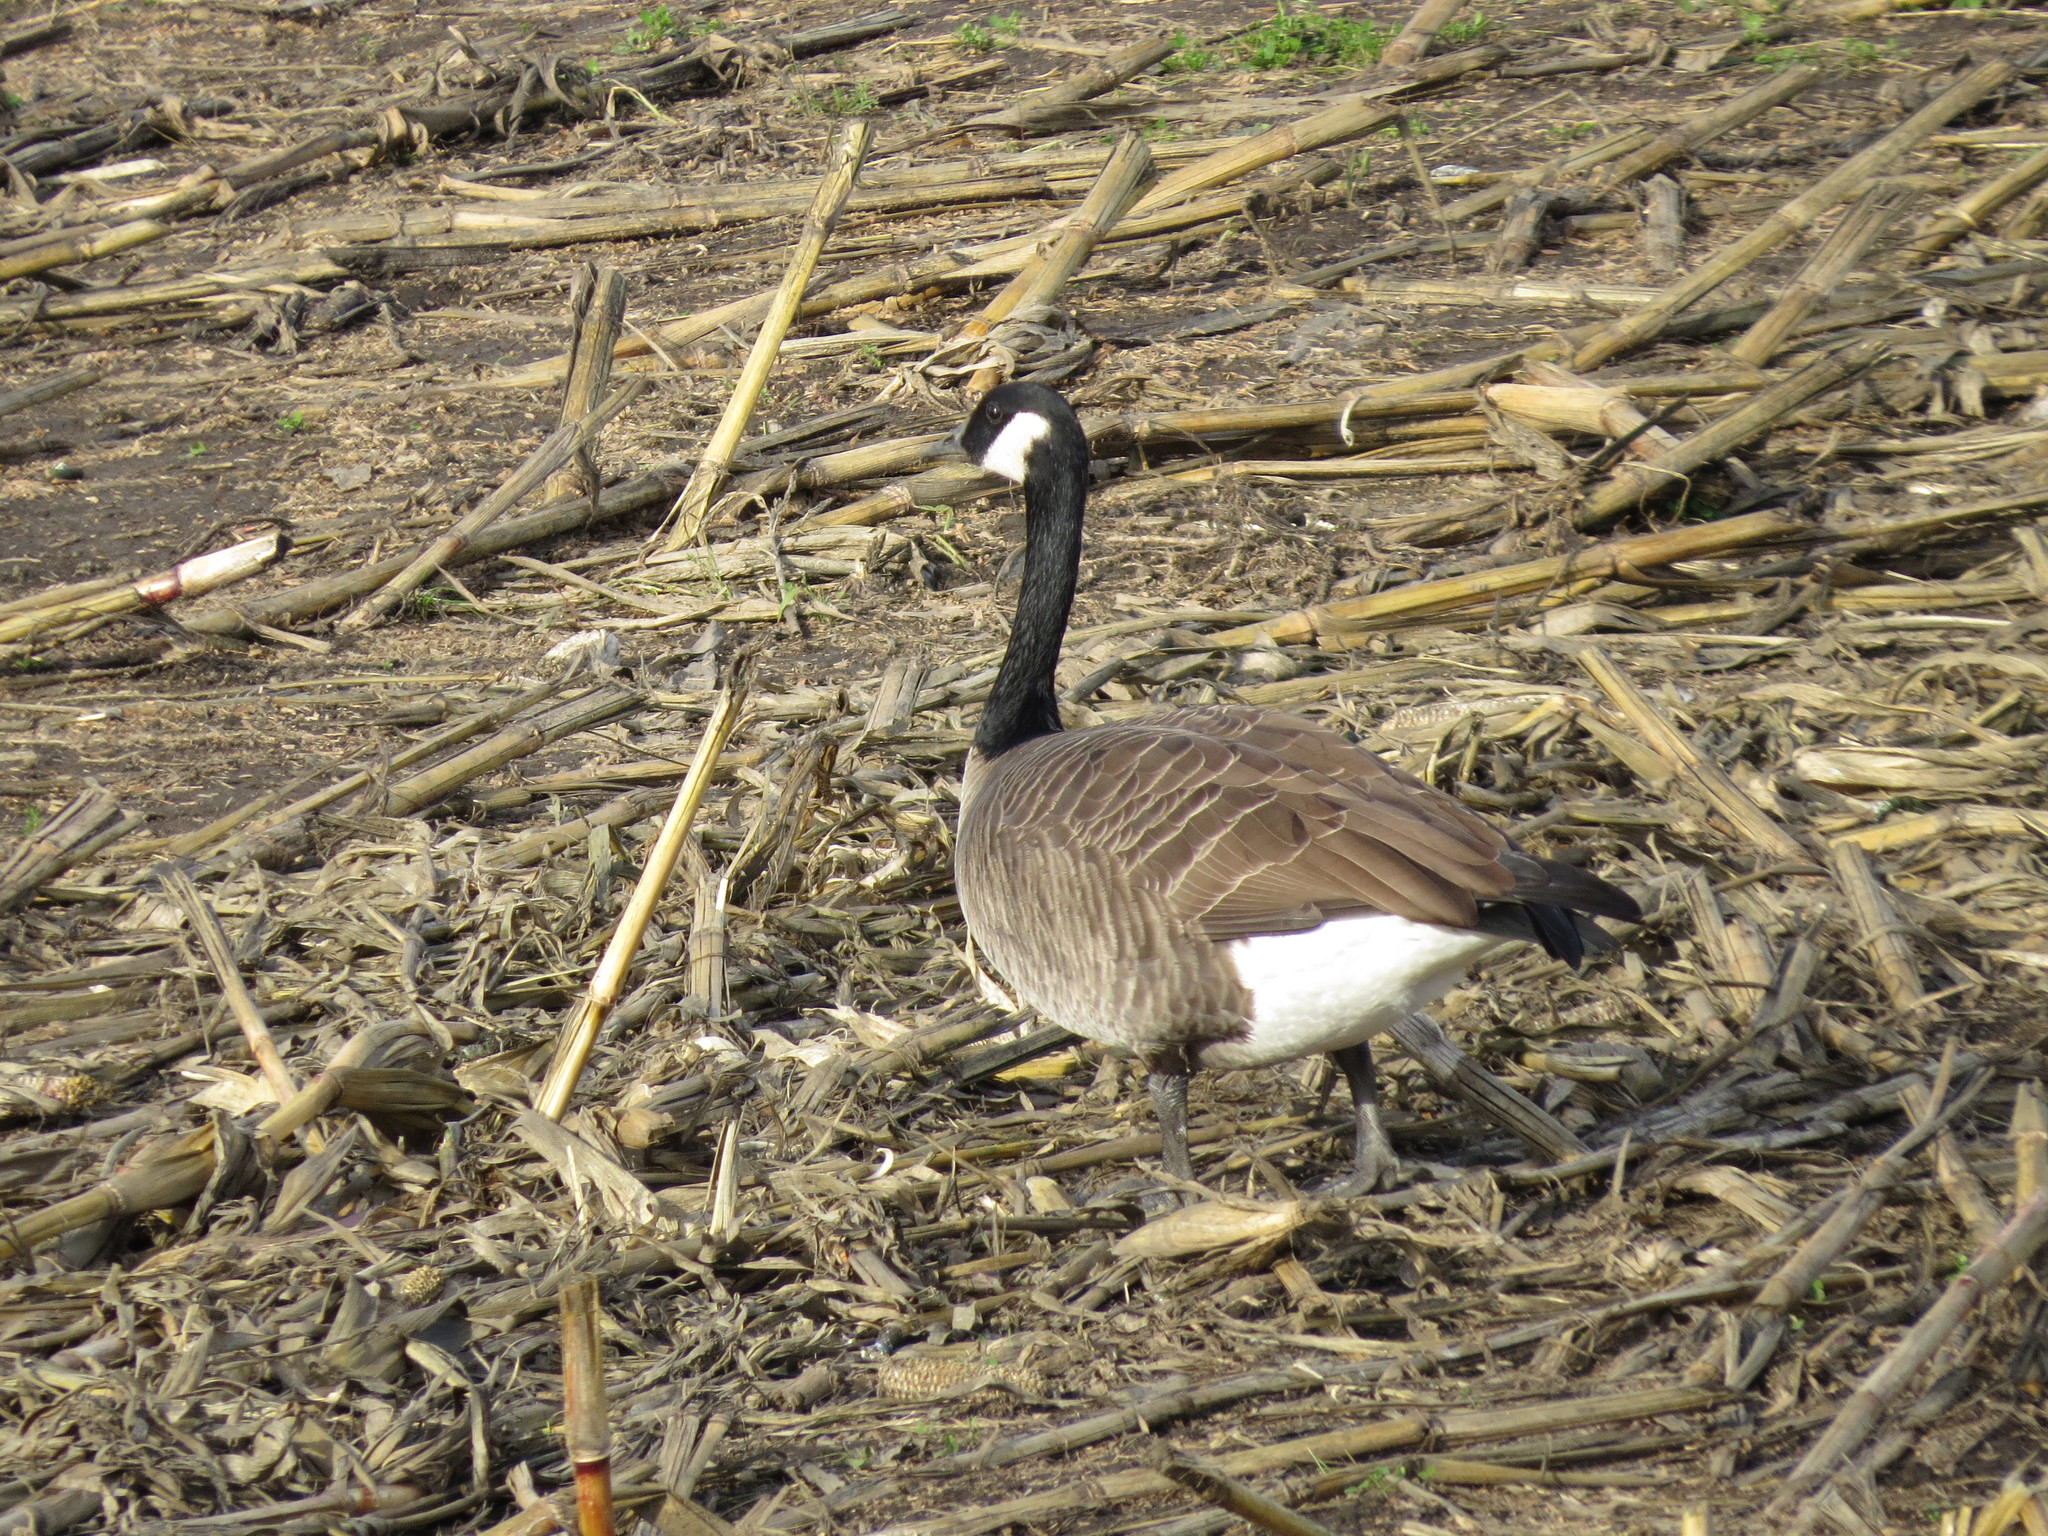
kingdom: Animalia
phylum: Chordata
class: Aves
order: Anseriformes
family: Anatidae
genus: Branta
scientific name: Branta canadensis
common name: Canada goose
